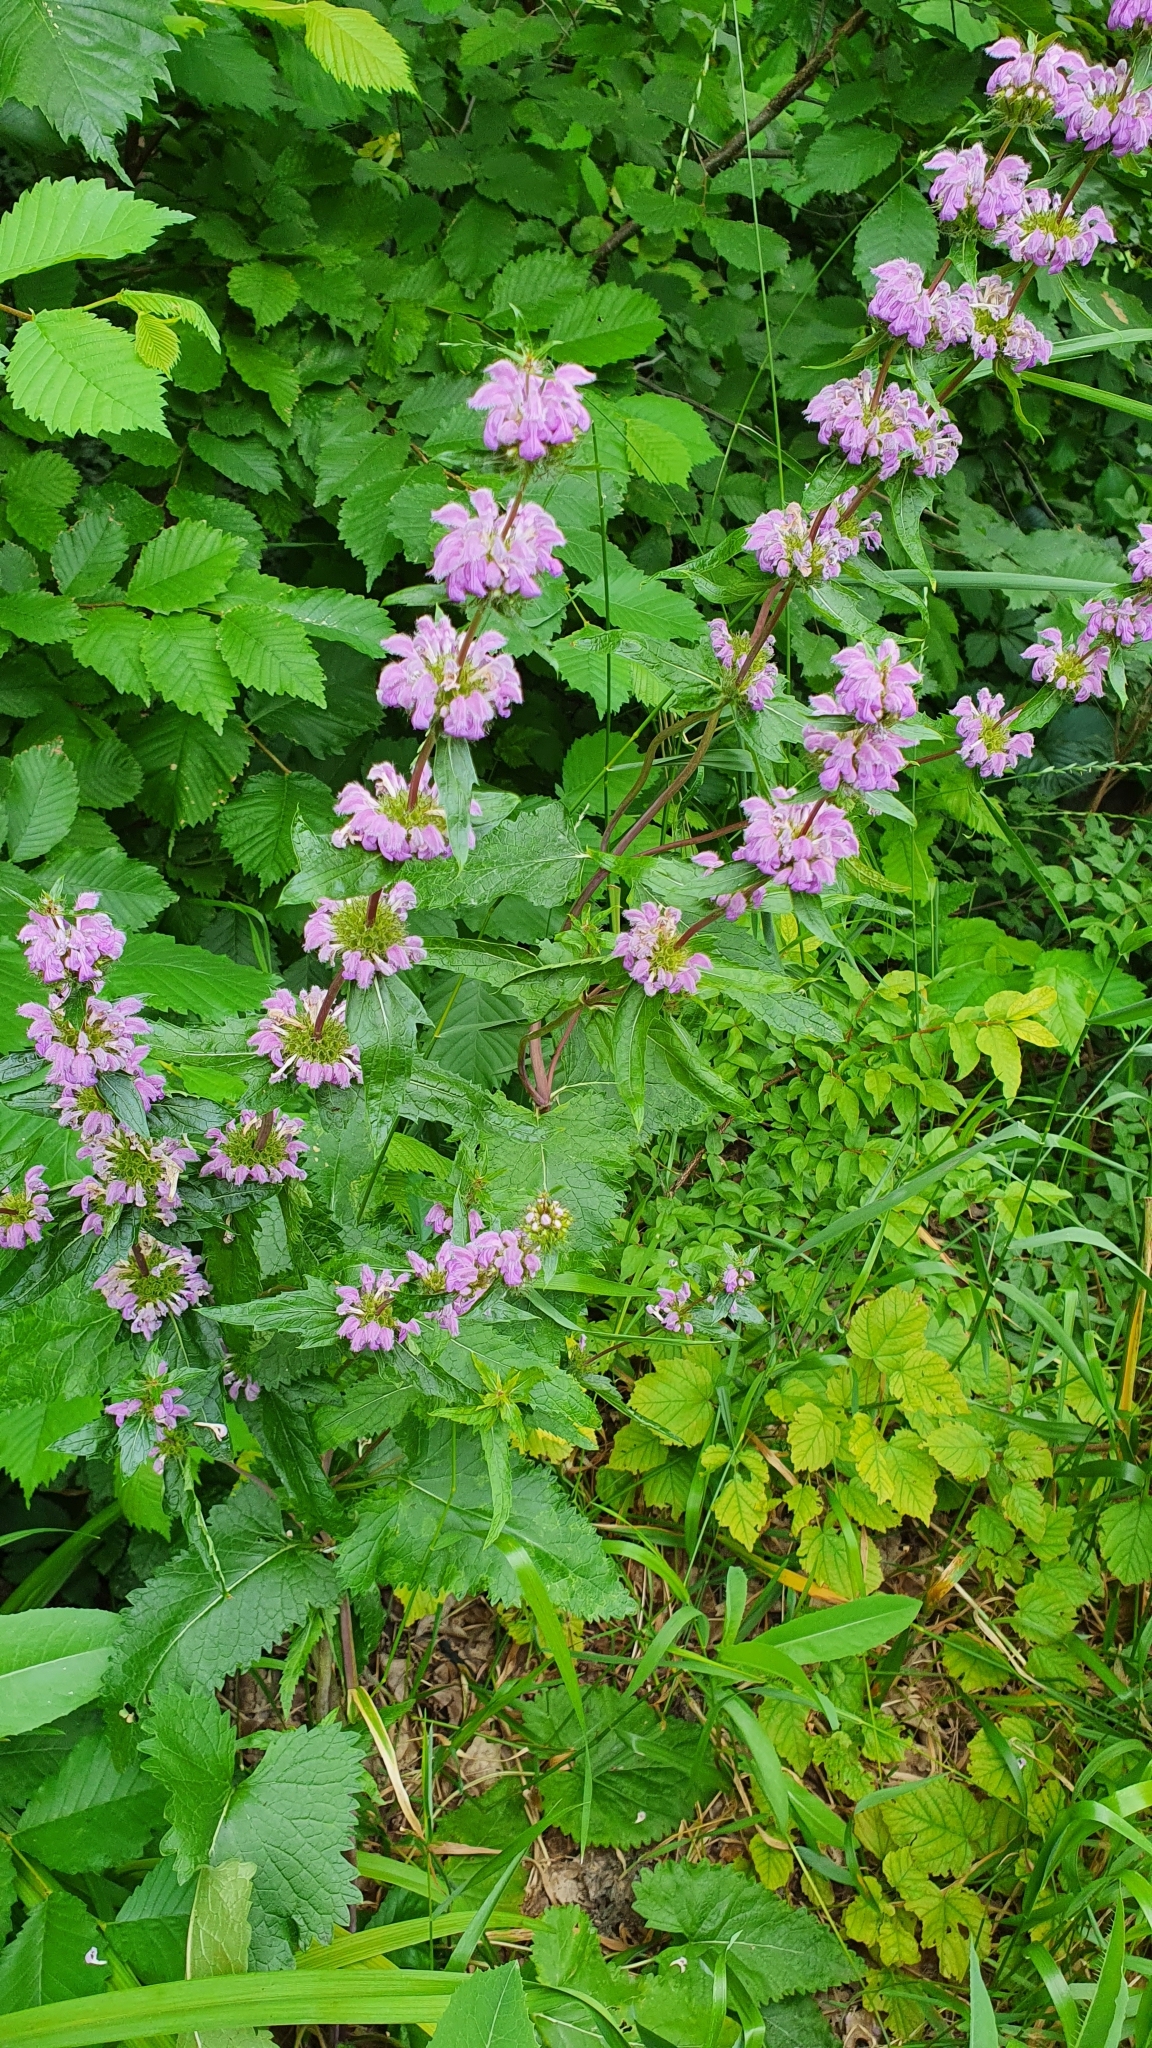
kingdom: Plantae
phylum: Tracheophyta
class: Magnoliopsida
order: Lamiales
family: Lamiaceae
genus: Phlomoides
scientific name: Phlomoides tuberosa
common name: Tuberous jerusalem sage
